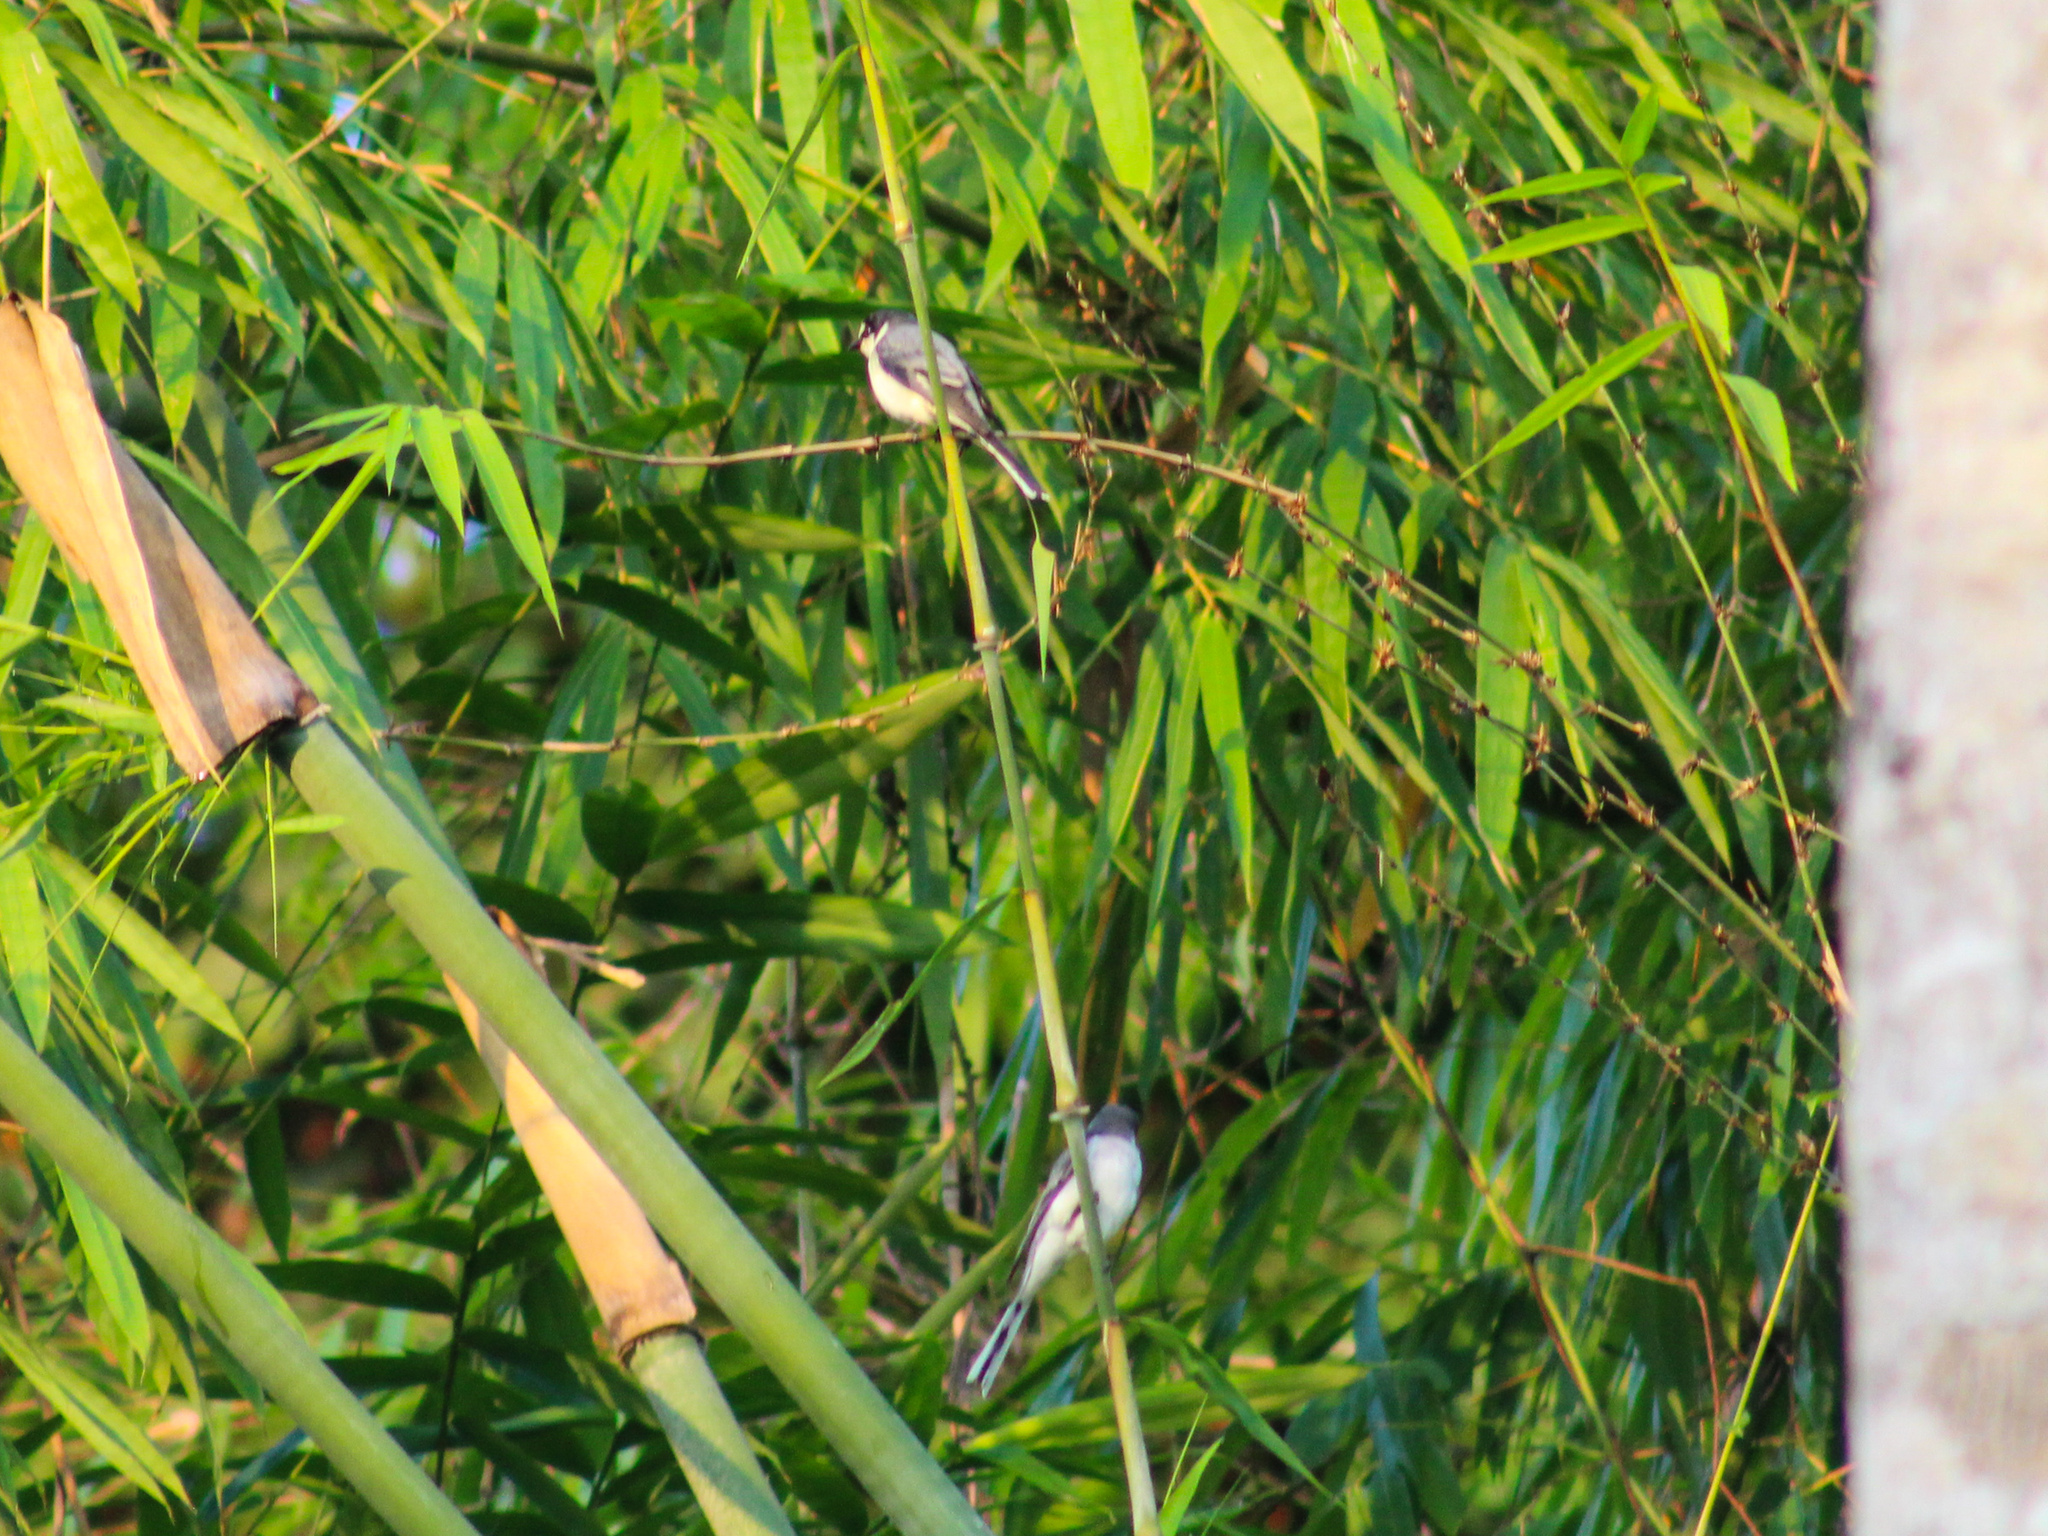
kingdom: Animalia
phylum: Chordata
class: Aves
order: Passeriformes
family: Campephagidae
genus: Pericrocotus
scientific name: Pericrocotus divaricatus
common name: Ashy minivet
